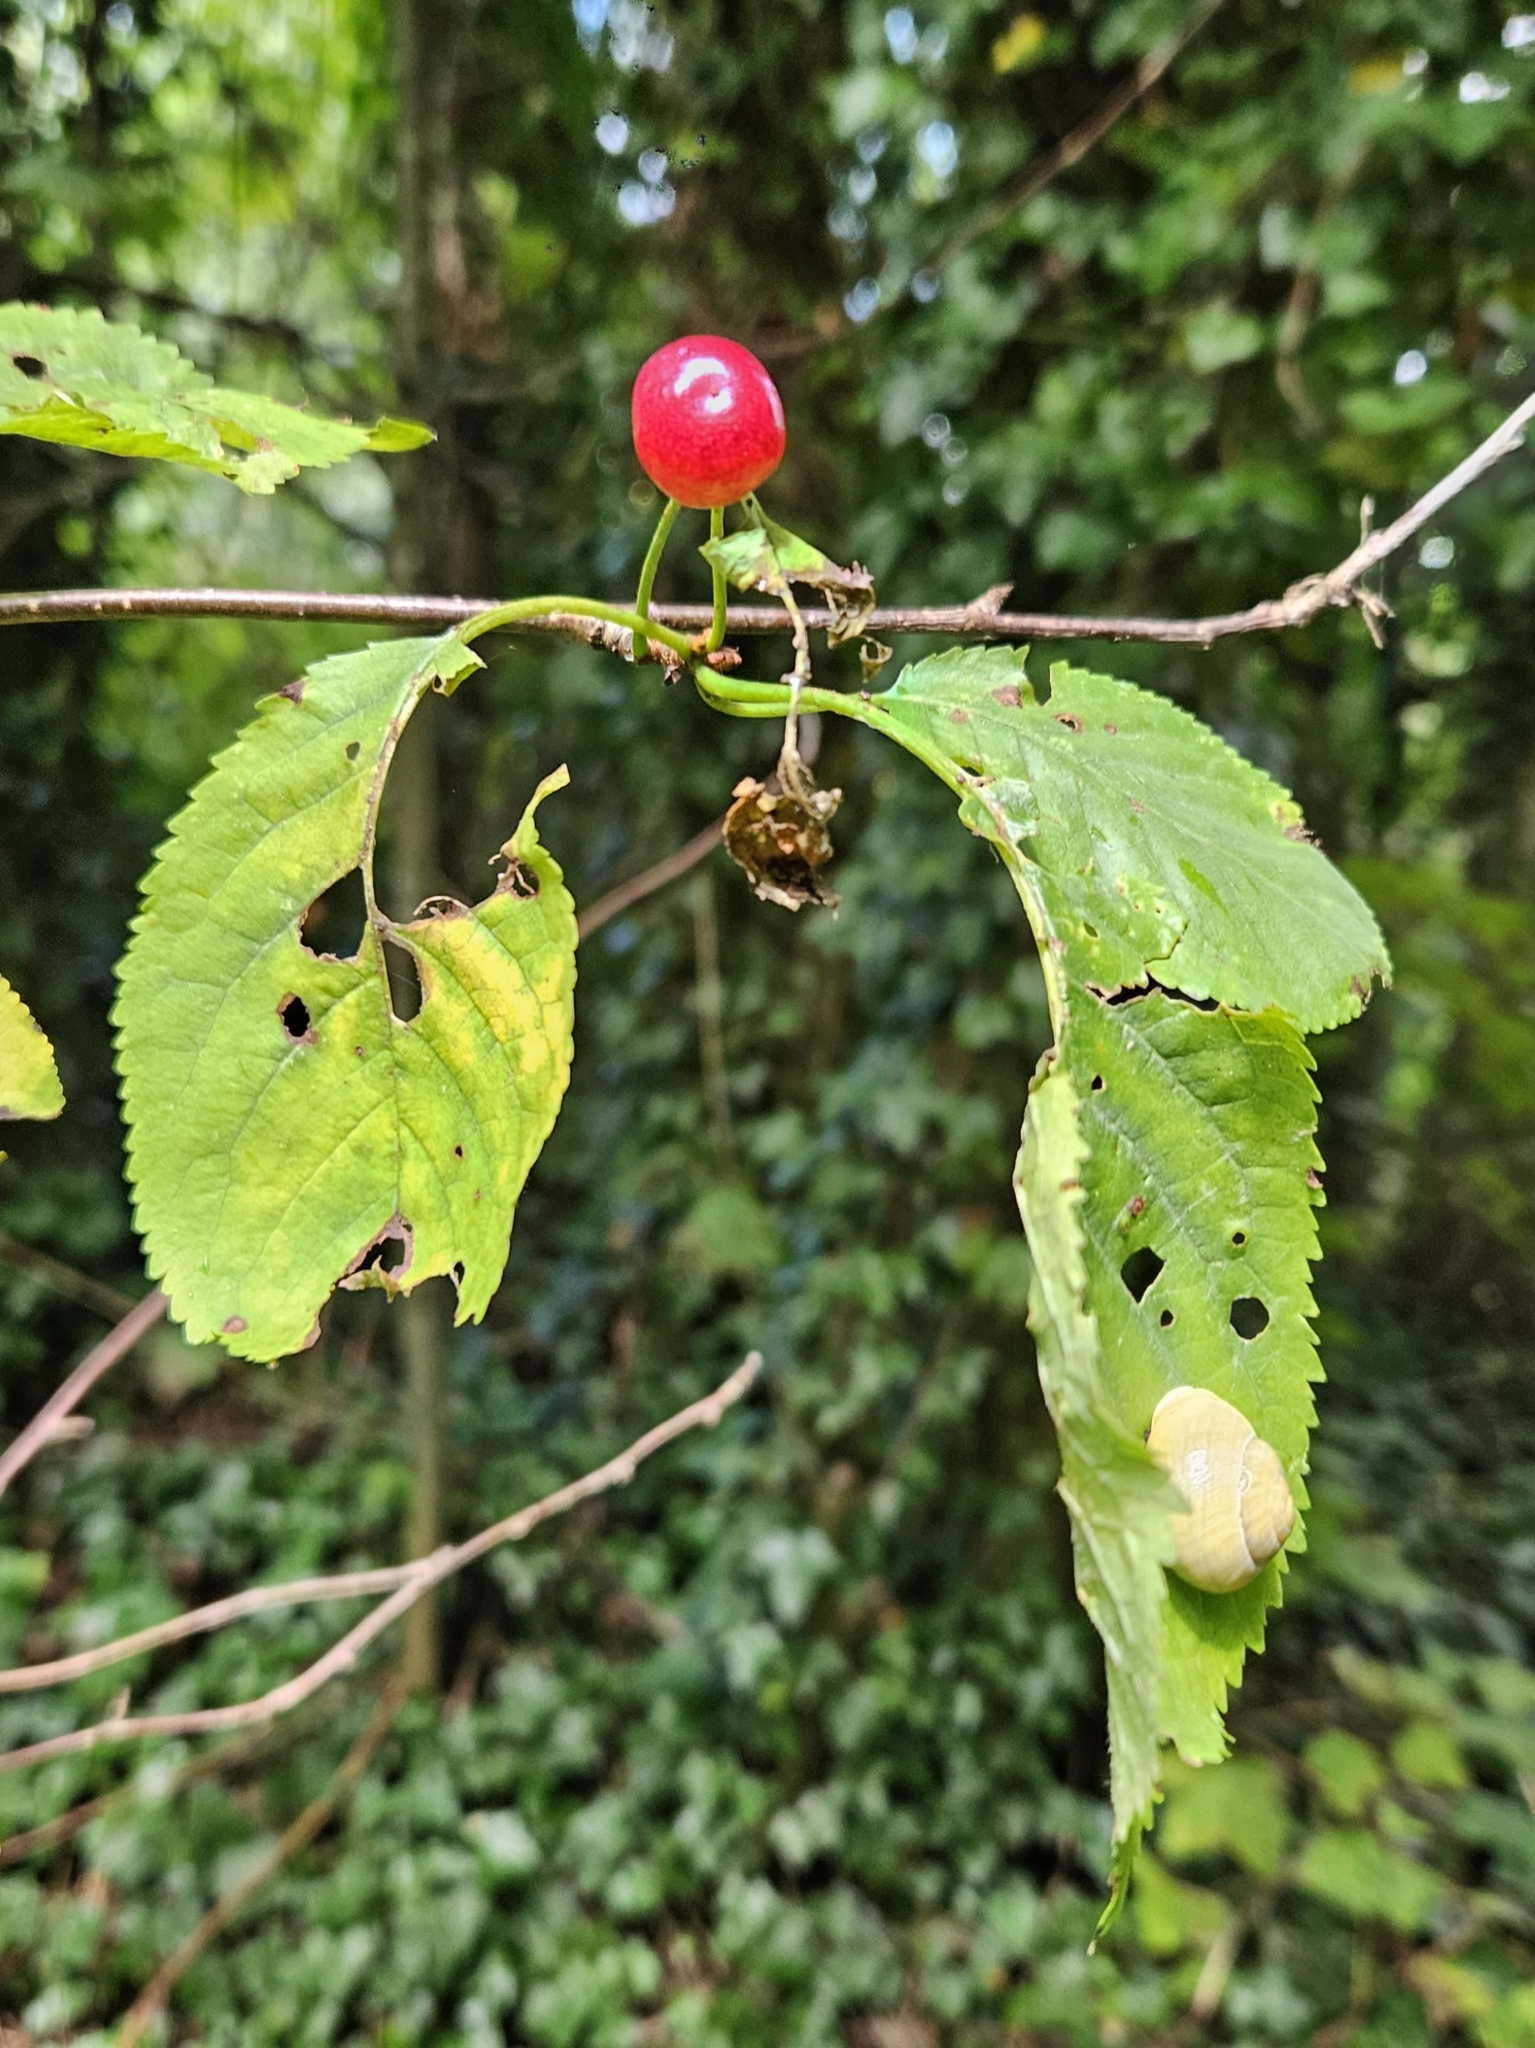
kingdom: Plantae
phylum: Tracheophyta
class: Magnoliopsida
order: Rosales
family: Rosaceae
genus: Prunus
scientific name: Prunus avium
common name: Sweet cherry
